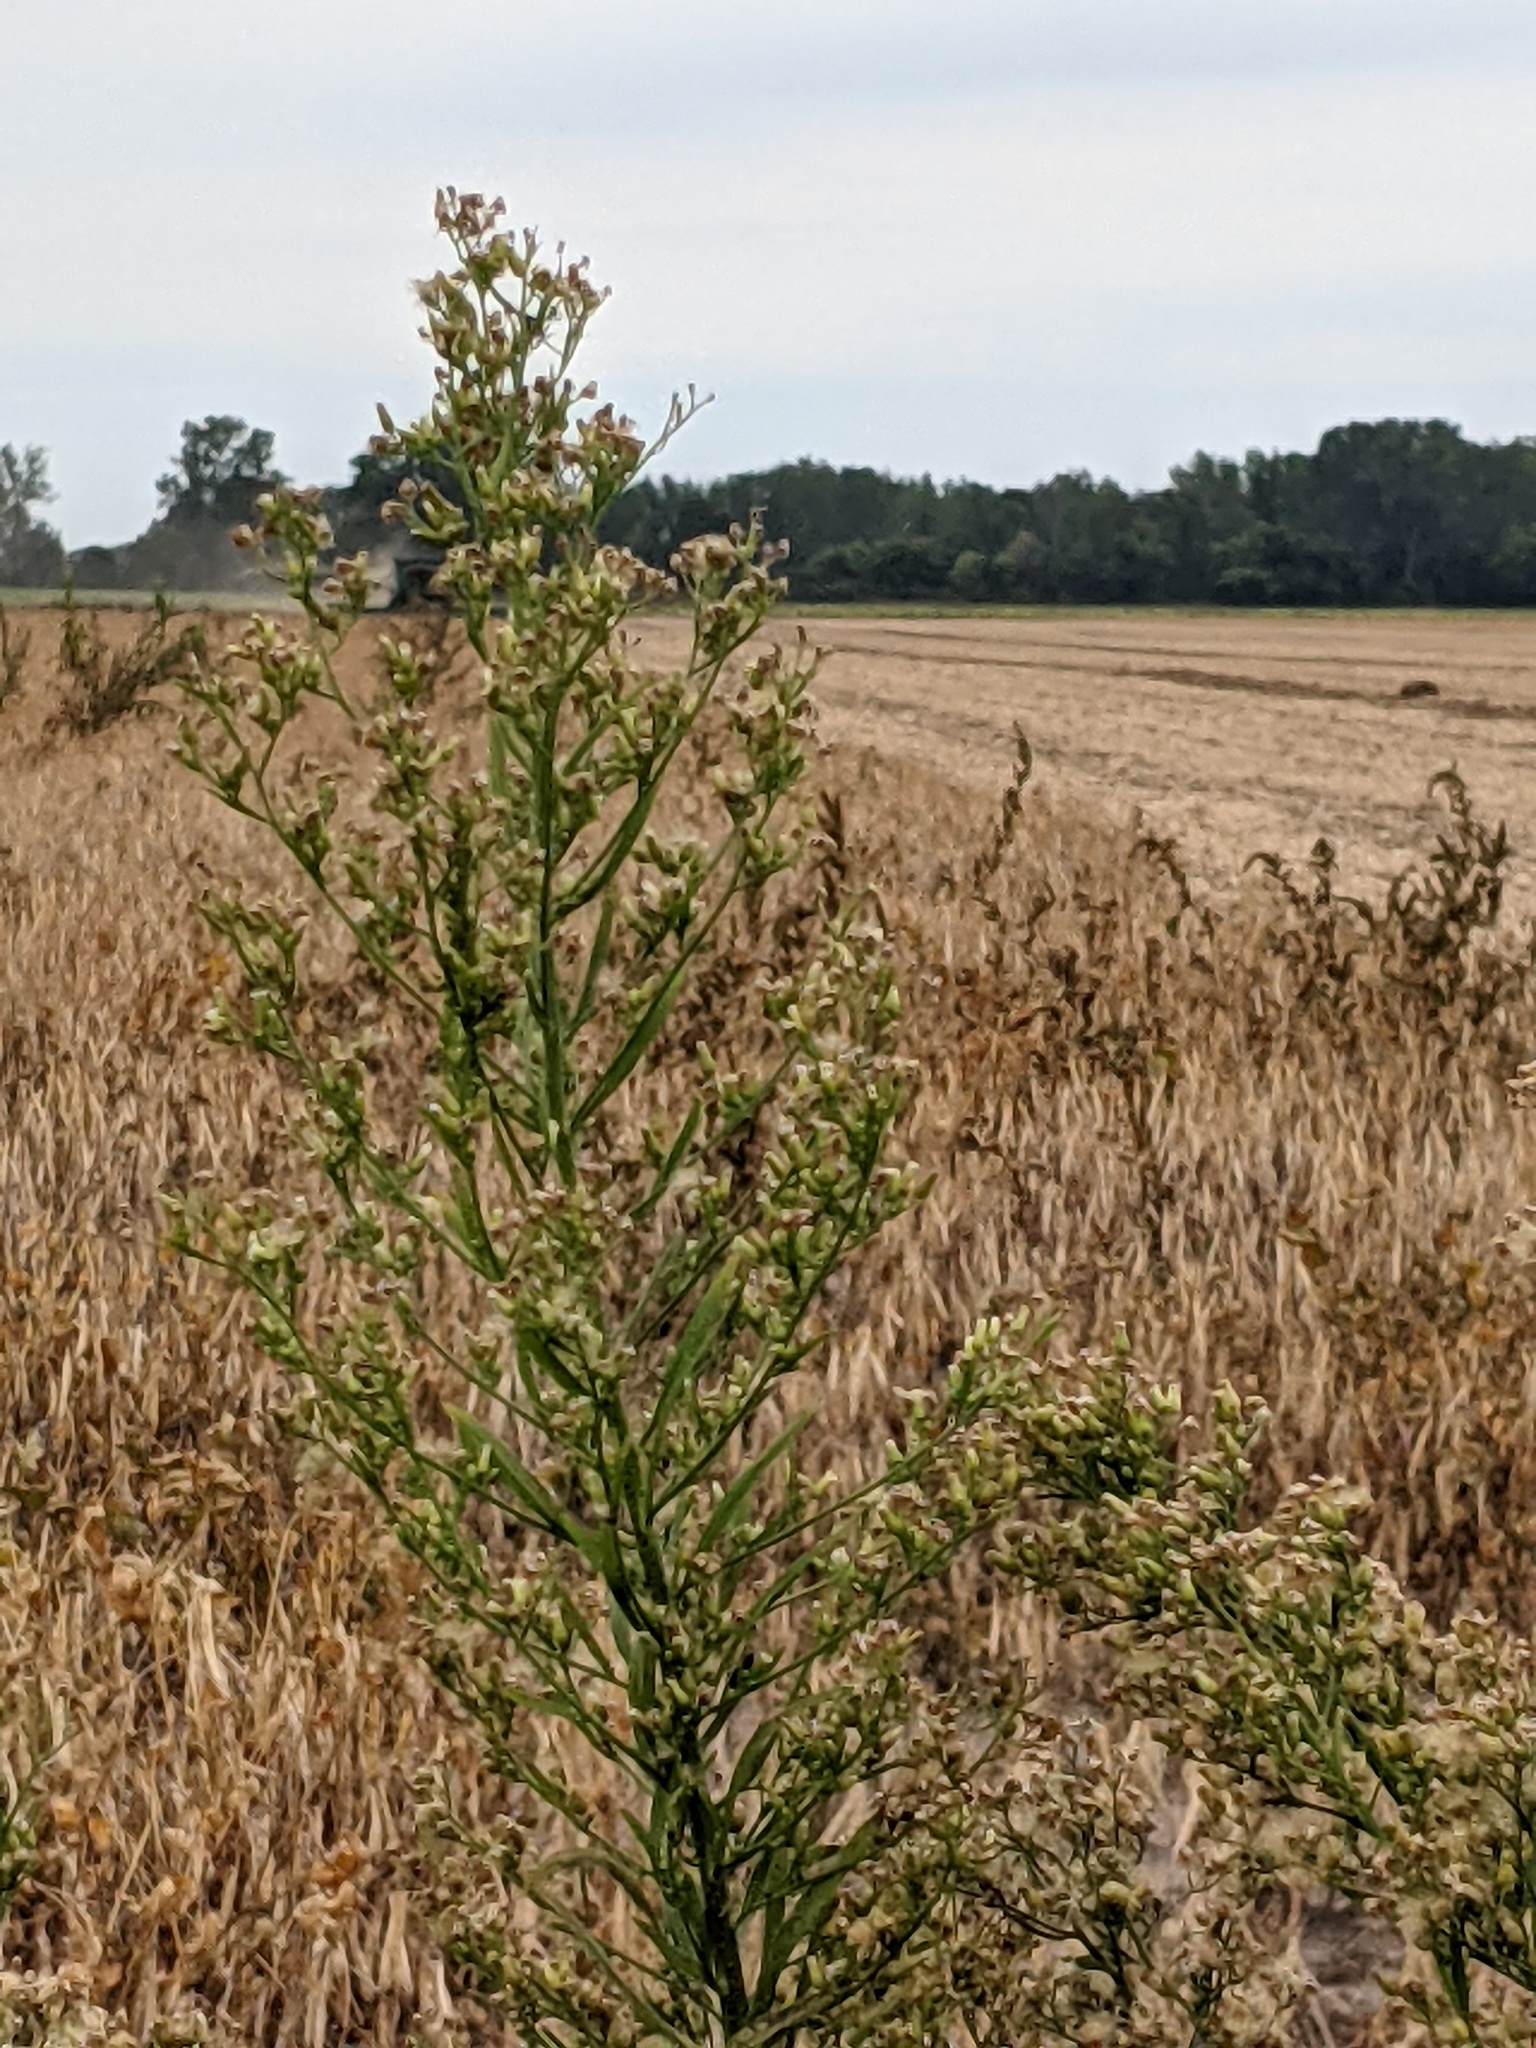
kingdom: Plantae
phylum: Tracheophyta
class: Magnoliopsida
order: Asterales
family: Asteraceae
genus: Erigeron
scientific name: Erigeron canadensis
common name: Canadian fleabane
